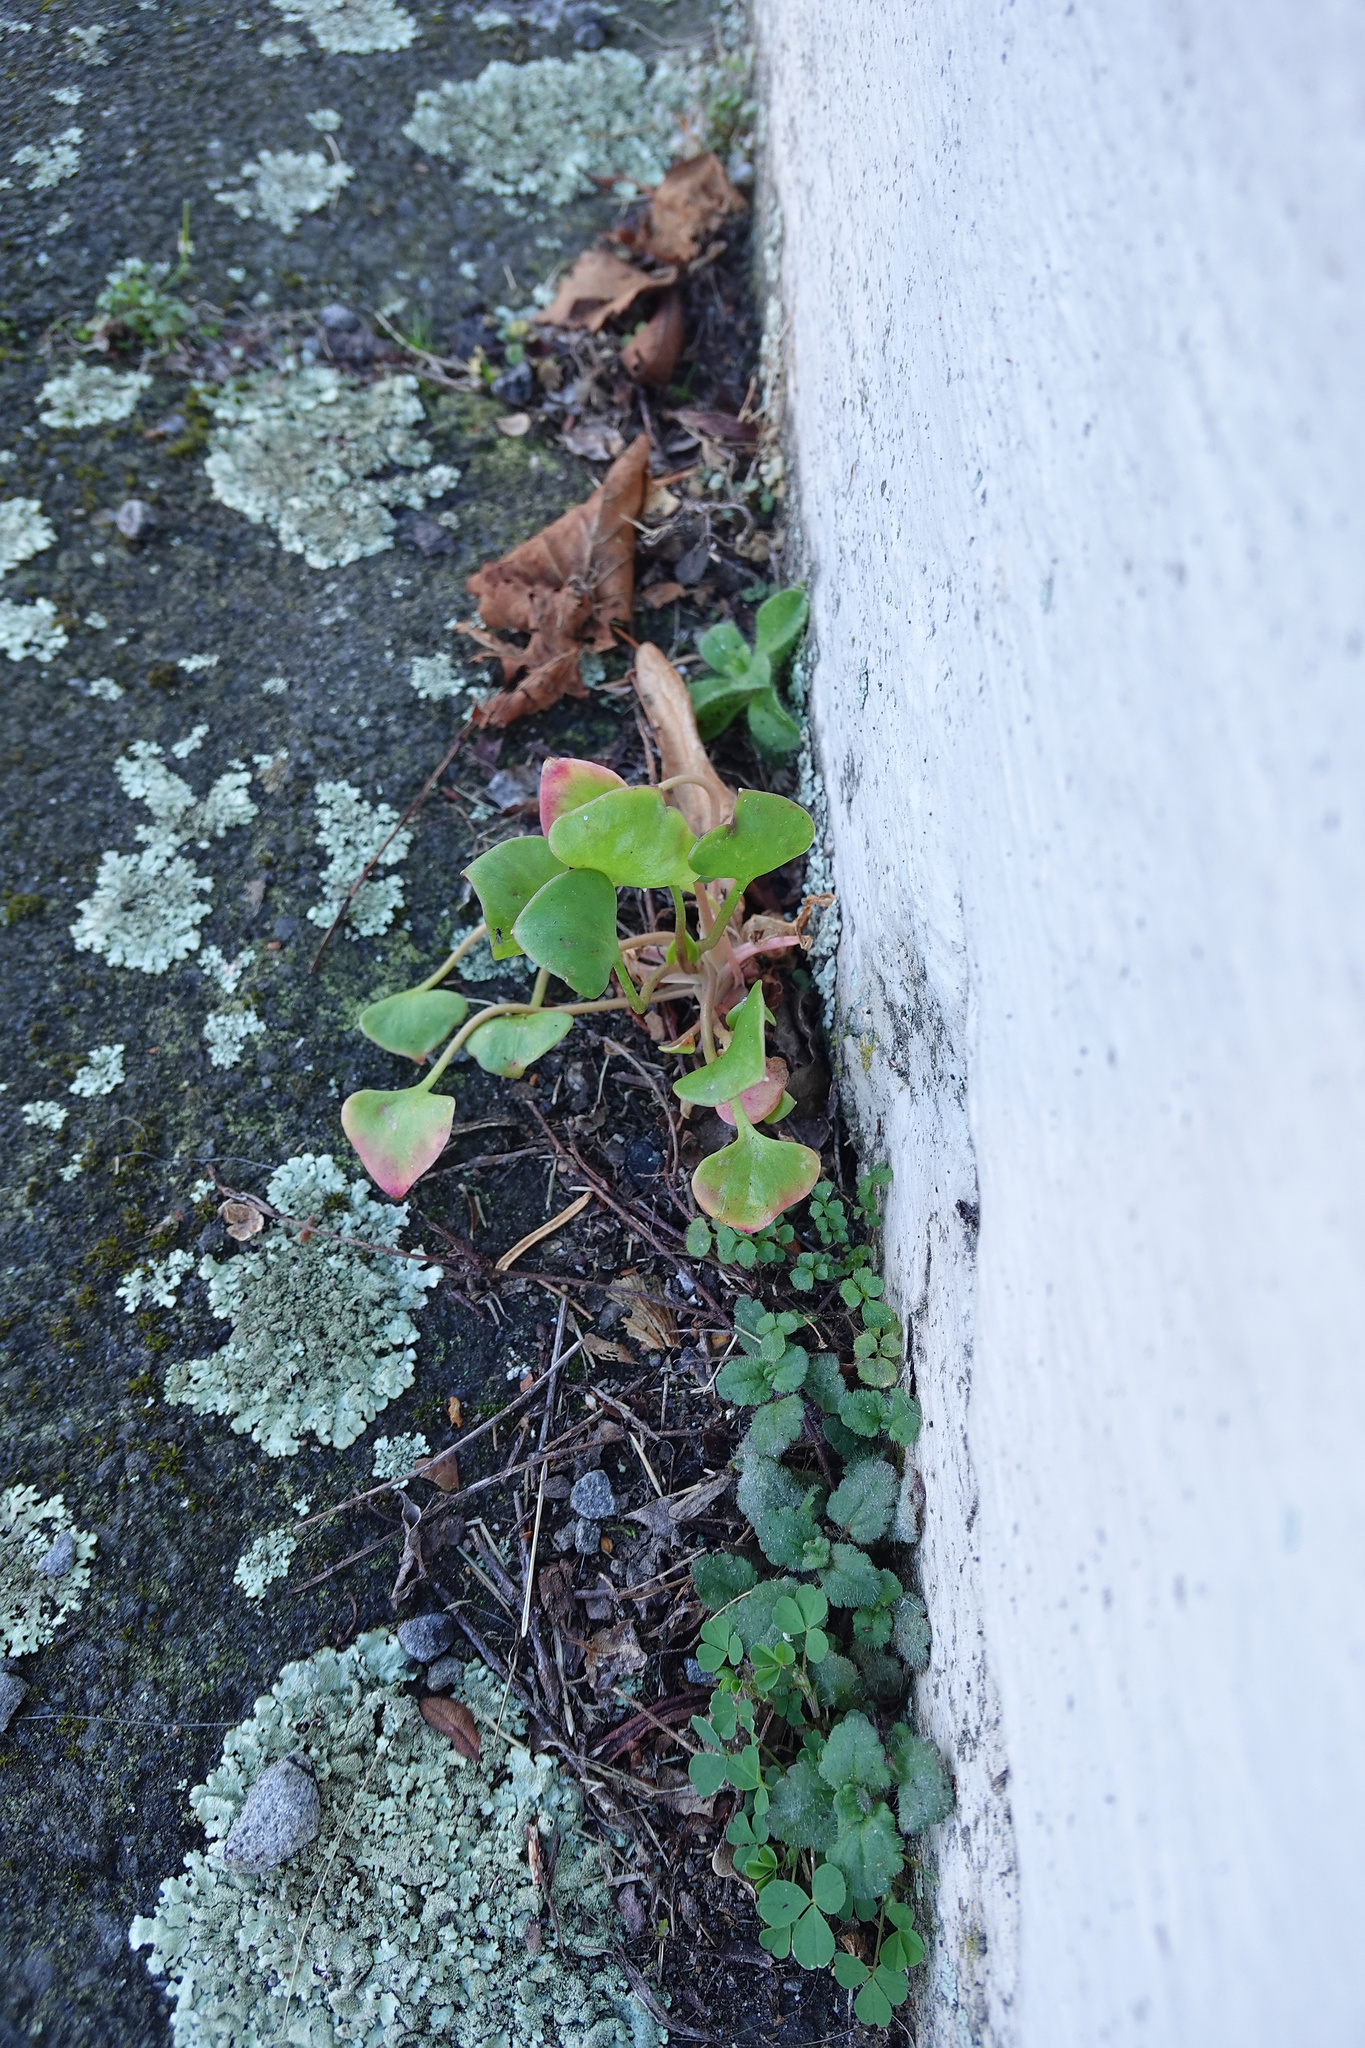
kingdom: Plantae
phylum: Tracheophyta
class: Magnoliopsida
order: Caryophyllales
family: Montiaceae
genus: Claytonia
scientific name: Claytonia perfoliata
